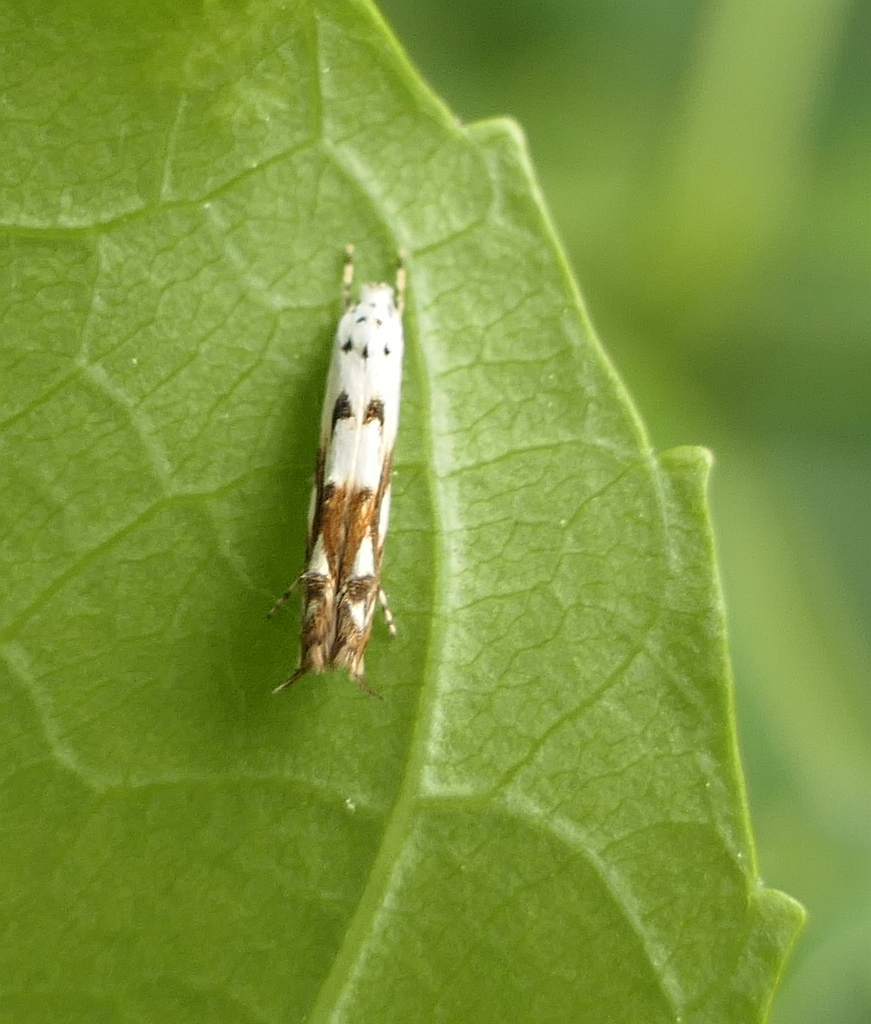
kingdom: Animalia
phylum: Arthropoda
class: Insecta
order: Lepidoptera
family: Momphidae
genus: Mompha
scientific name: Mompha eloisella
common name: Red-streaked mompha moth
